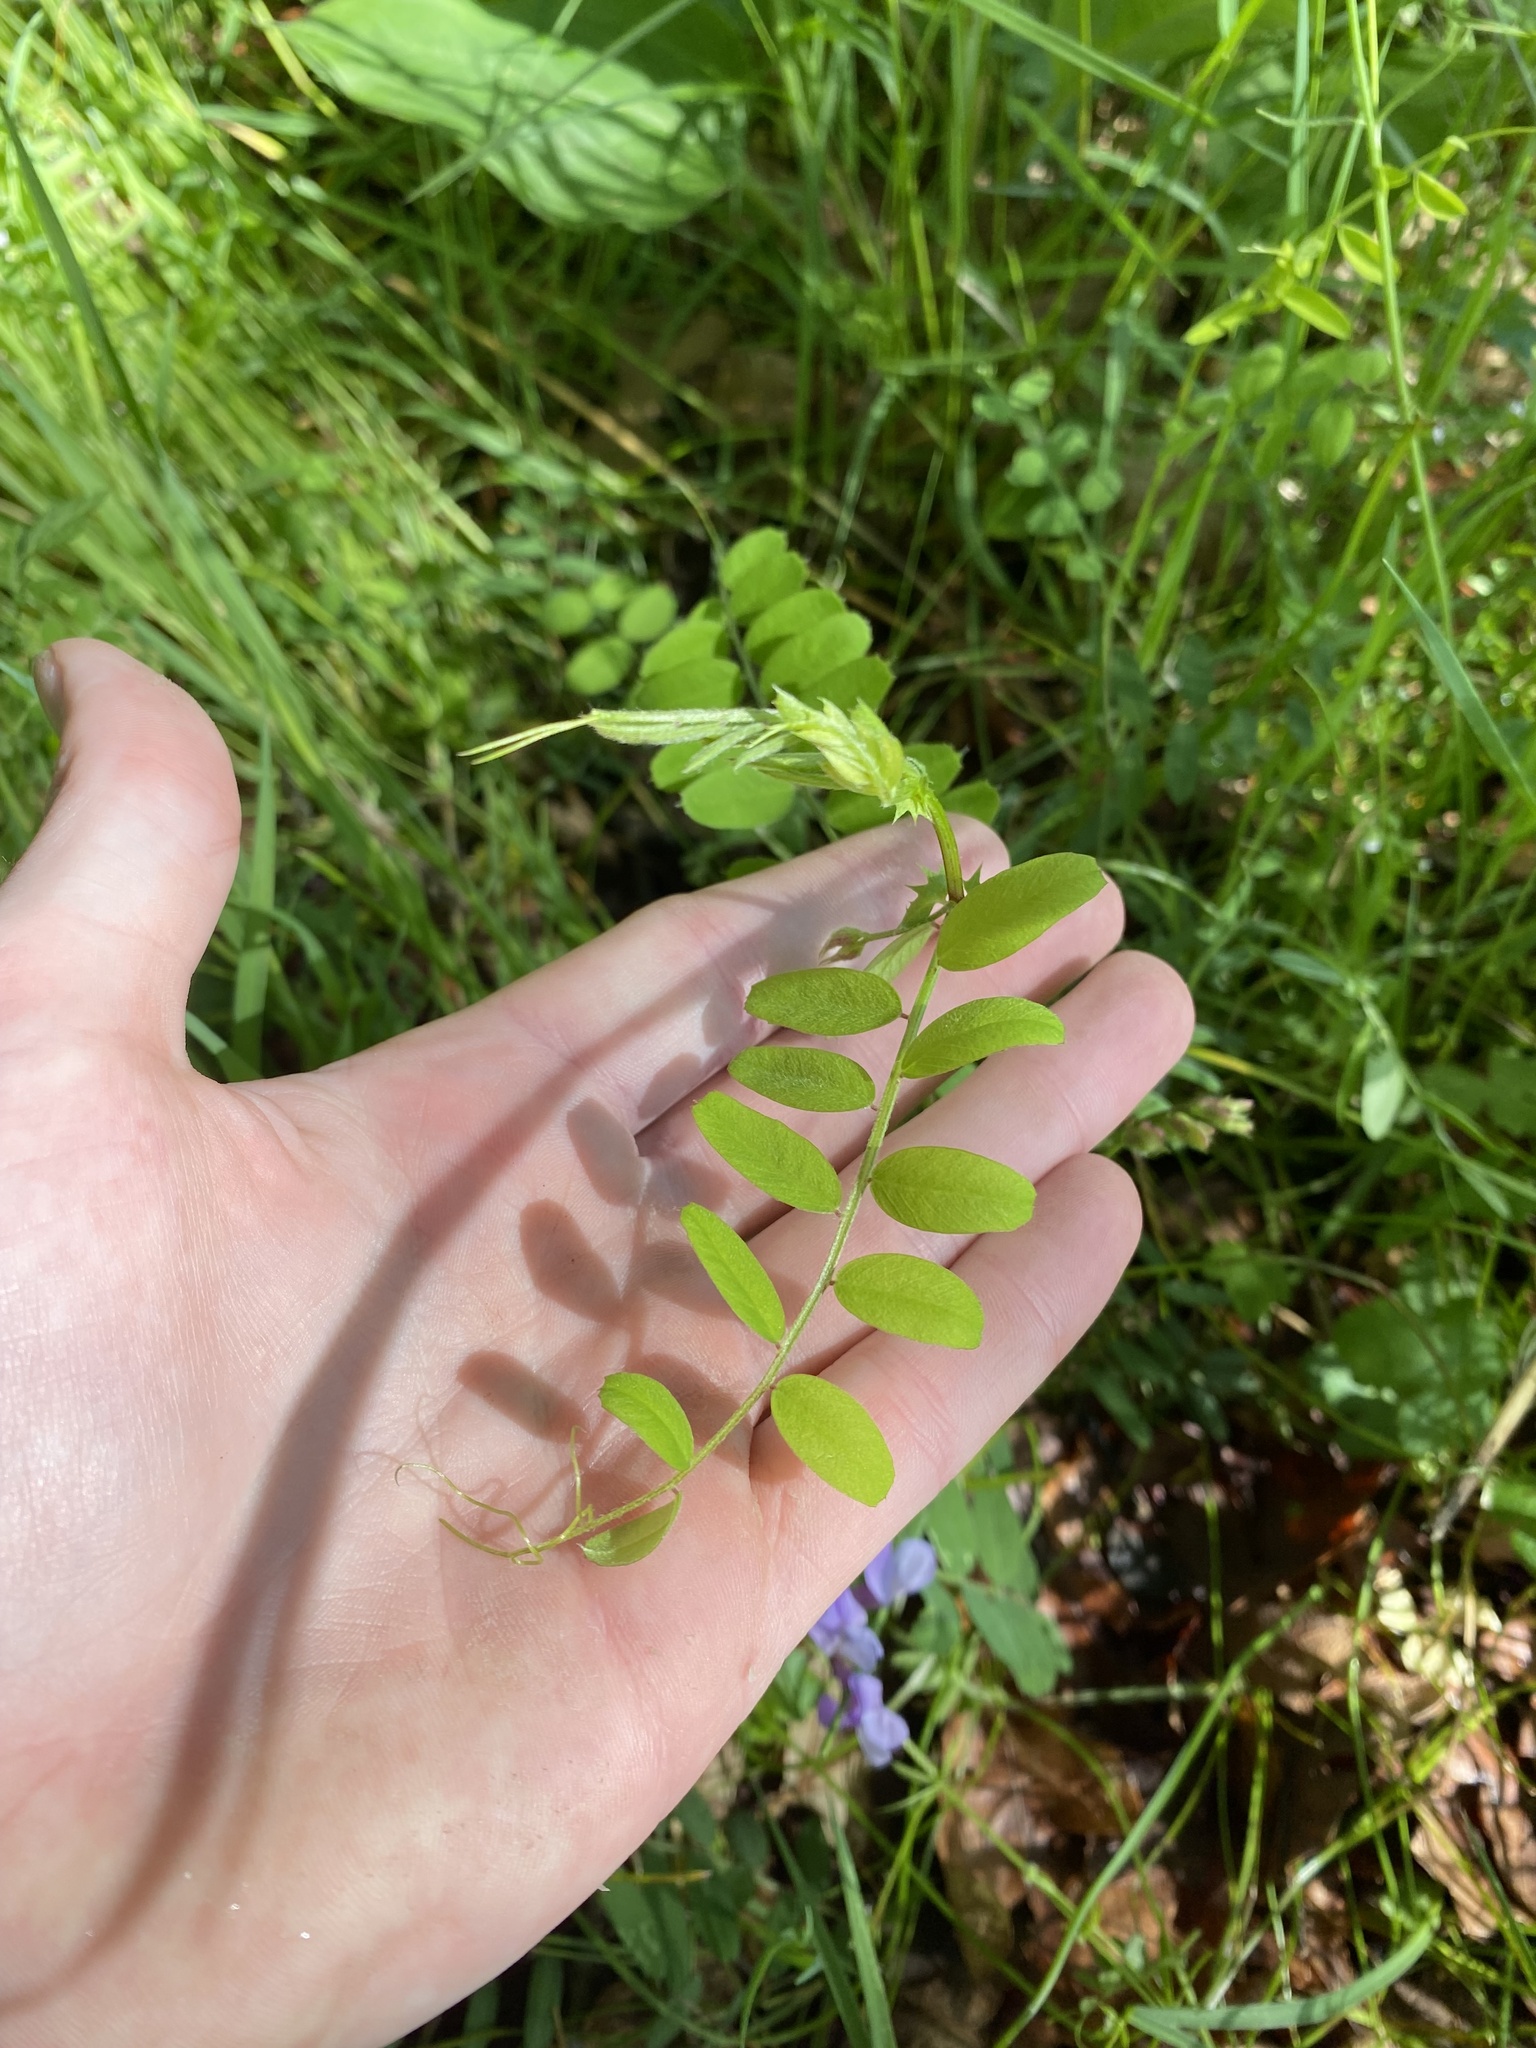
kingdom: Plantae
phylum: Tracheophyta
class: Magnoliopsida
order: Fabales
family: Fabaceae
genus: Lathyrus
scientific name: Lathyrus polyphyllus
